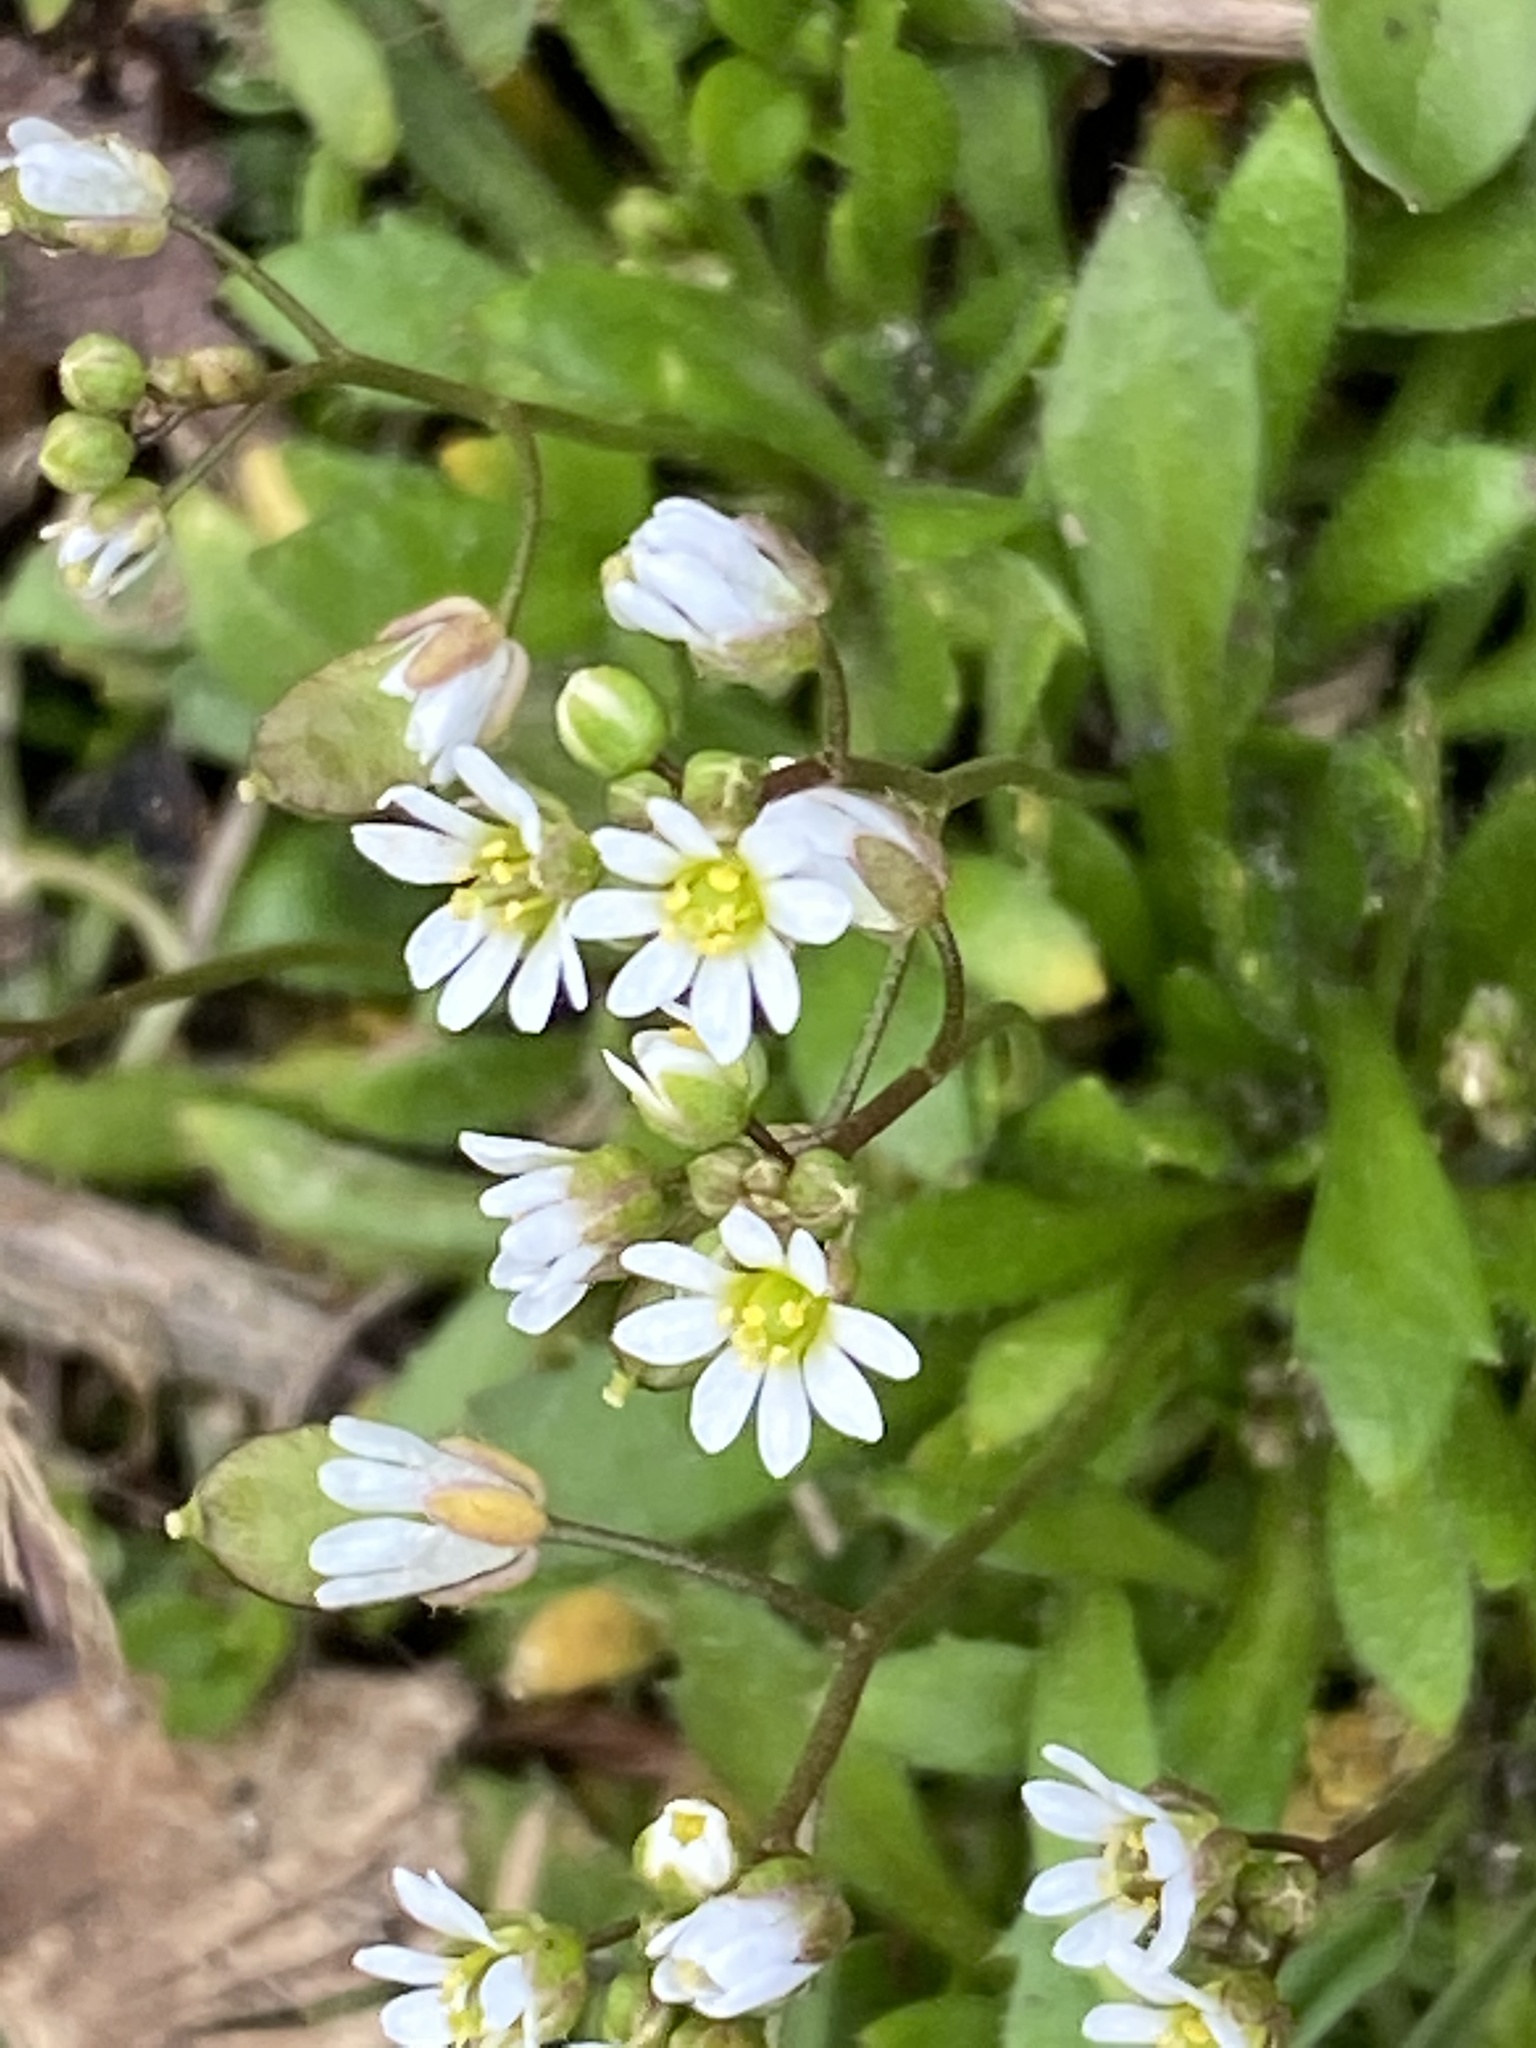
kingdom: Plantae
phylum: Tracheophyta
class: Magnoliopsida
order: Brassicales
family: Brassicaceae
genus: Draba
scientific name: Draba verna
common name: Spring draba
